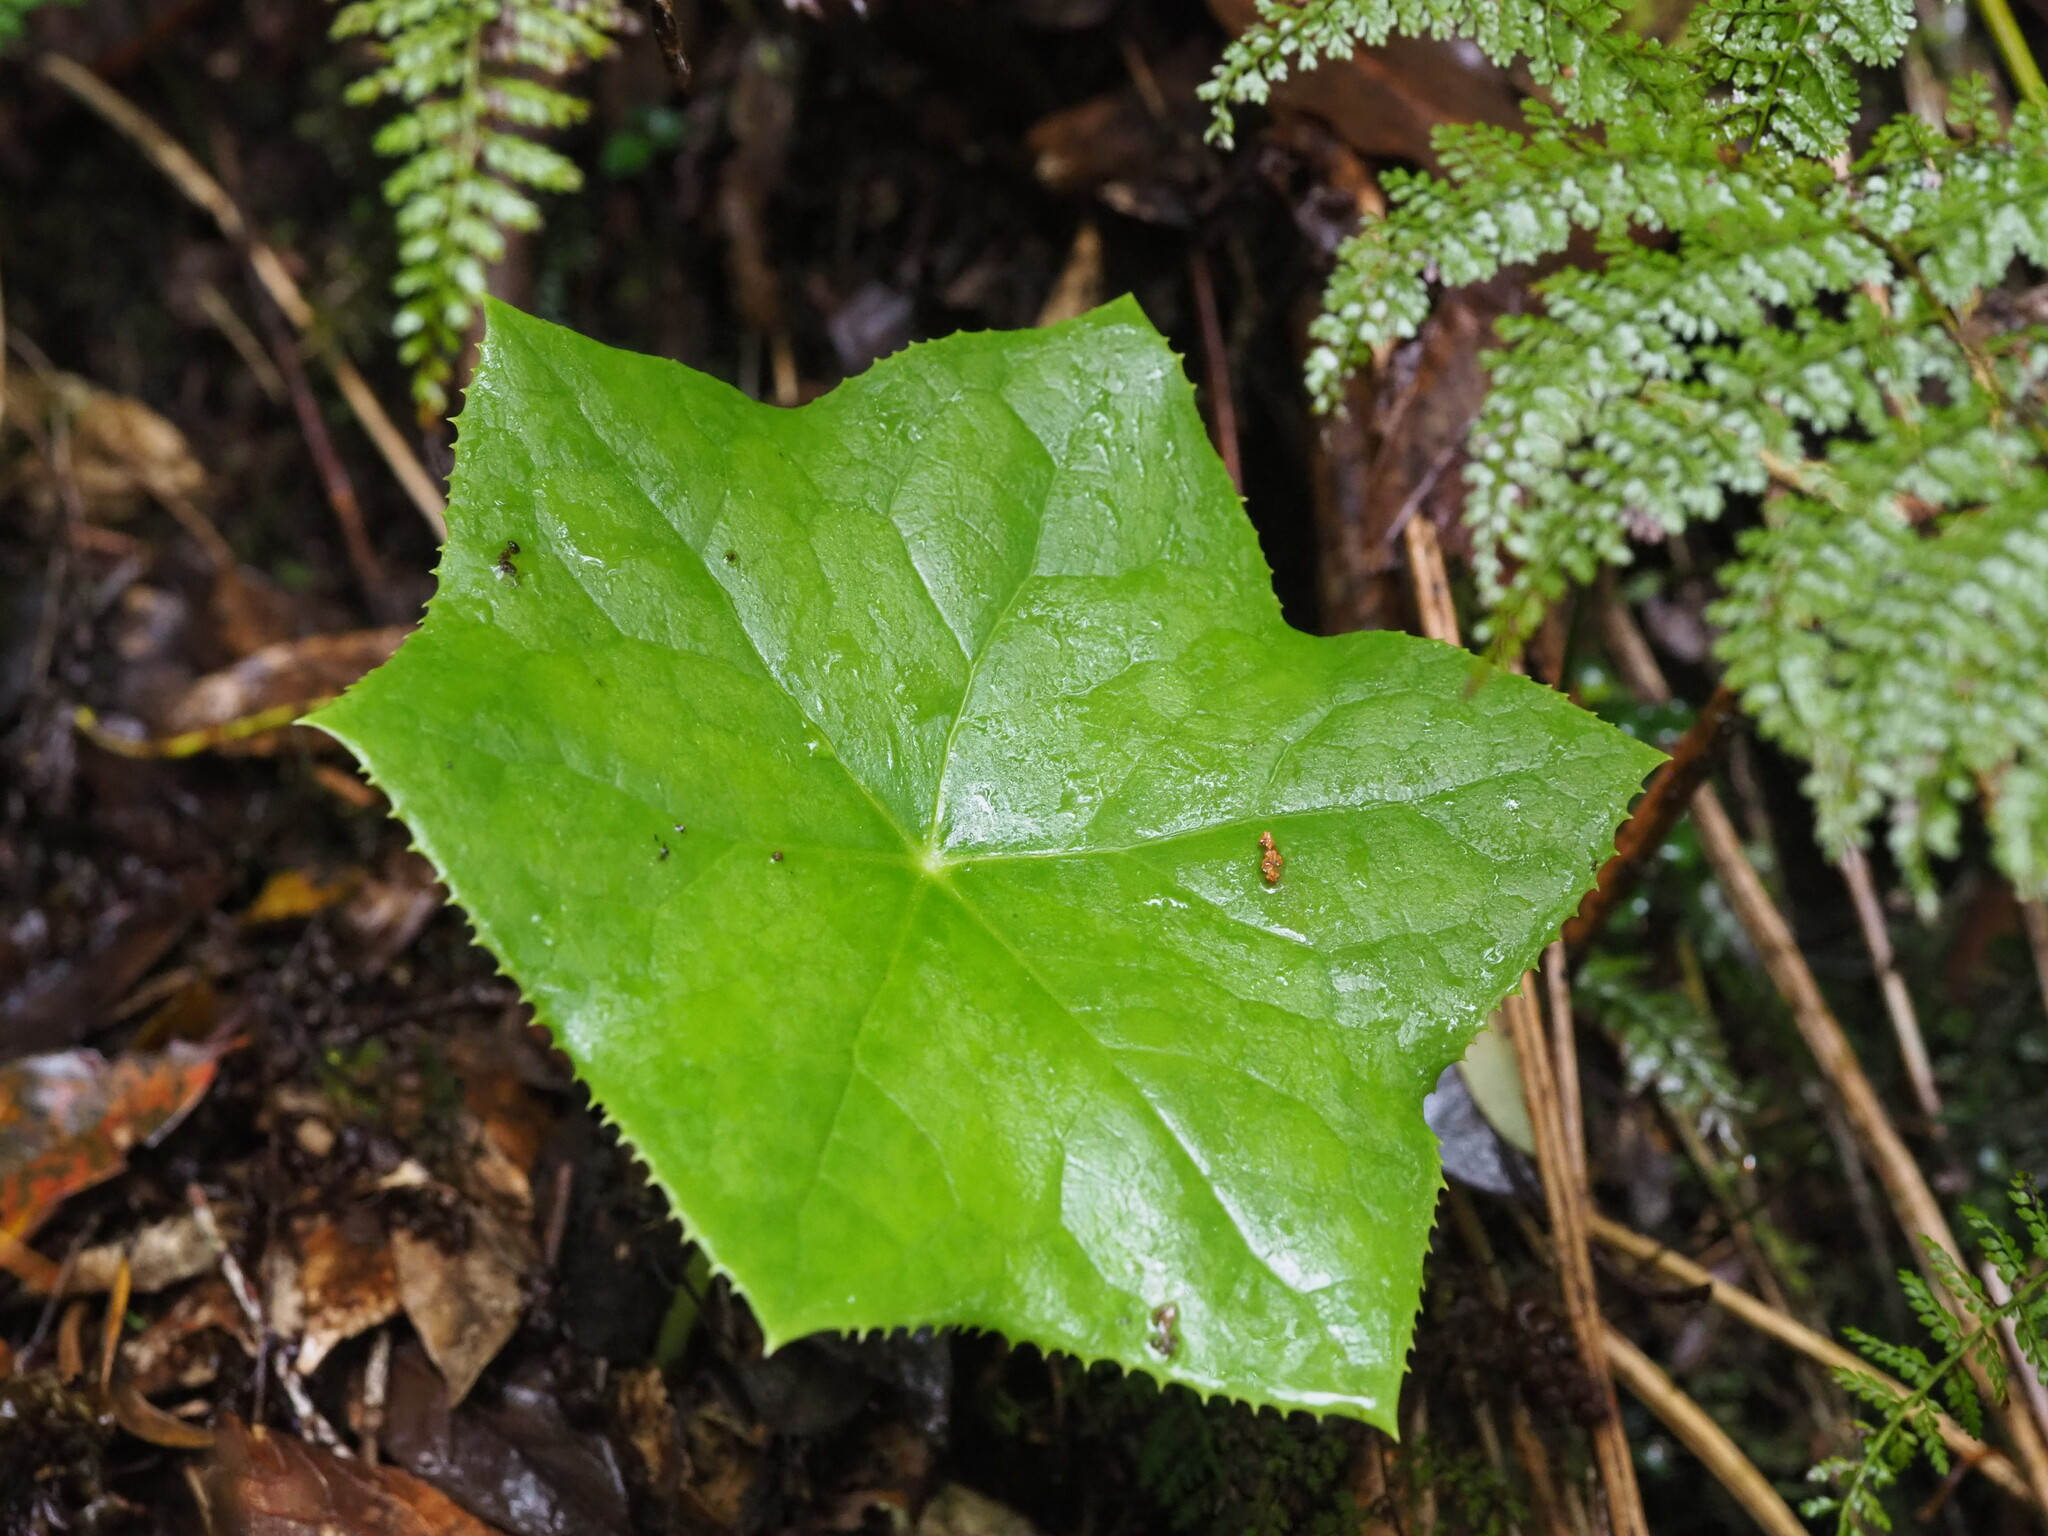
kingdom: Plantae
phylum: Tracheophyta
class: Magnoliopsida
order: Ranunculales
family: Berberidaceae
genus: Dysosma
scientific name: Dysosma pleiantha
